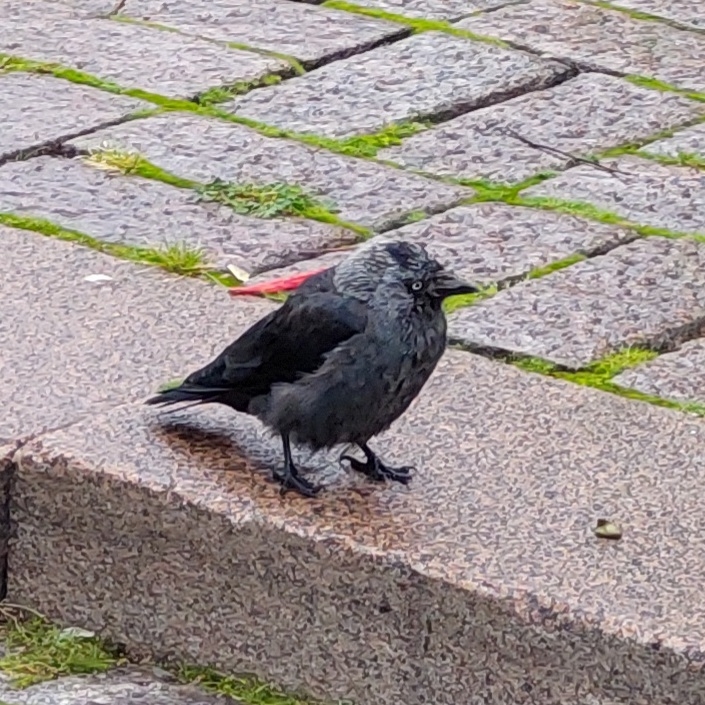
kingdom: Animalia
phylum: Chordata
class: Aves
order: Passeriformes
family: Corvidae
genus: Coloeus
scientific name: Coloeus monedula
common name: Western jackdaw
